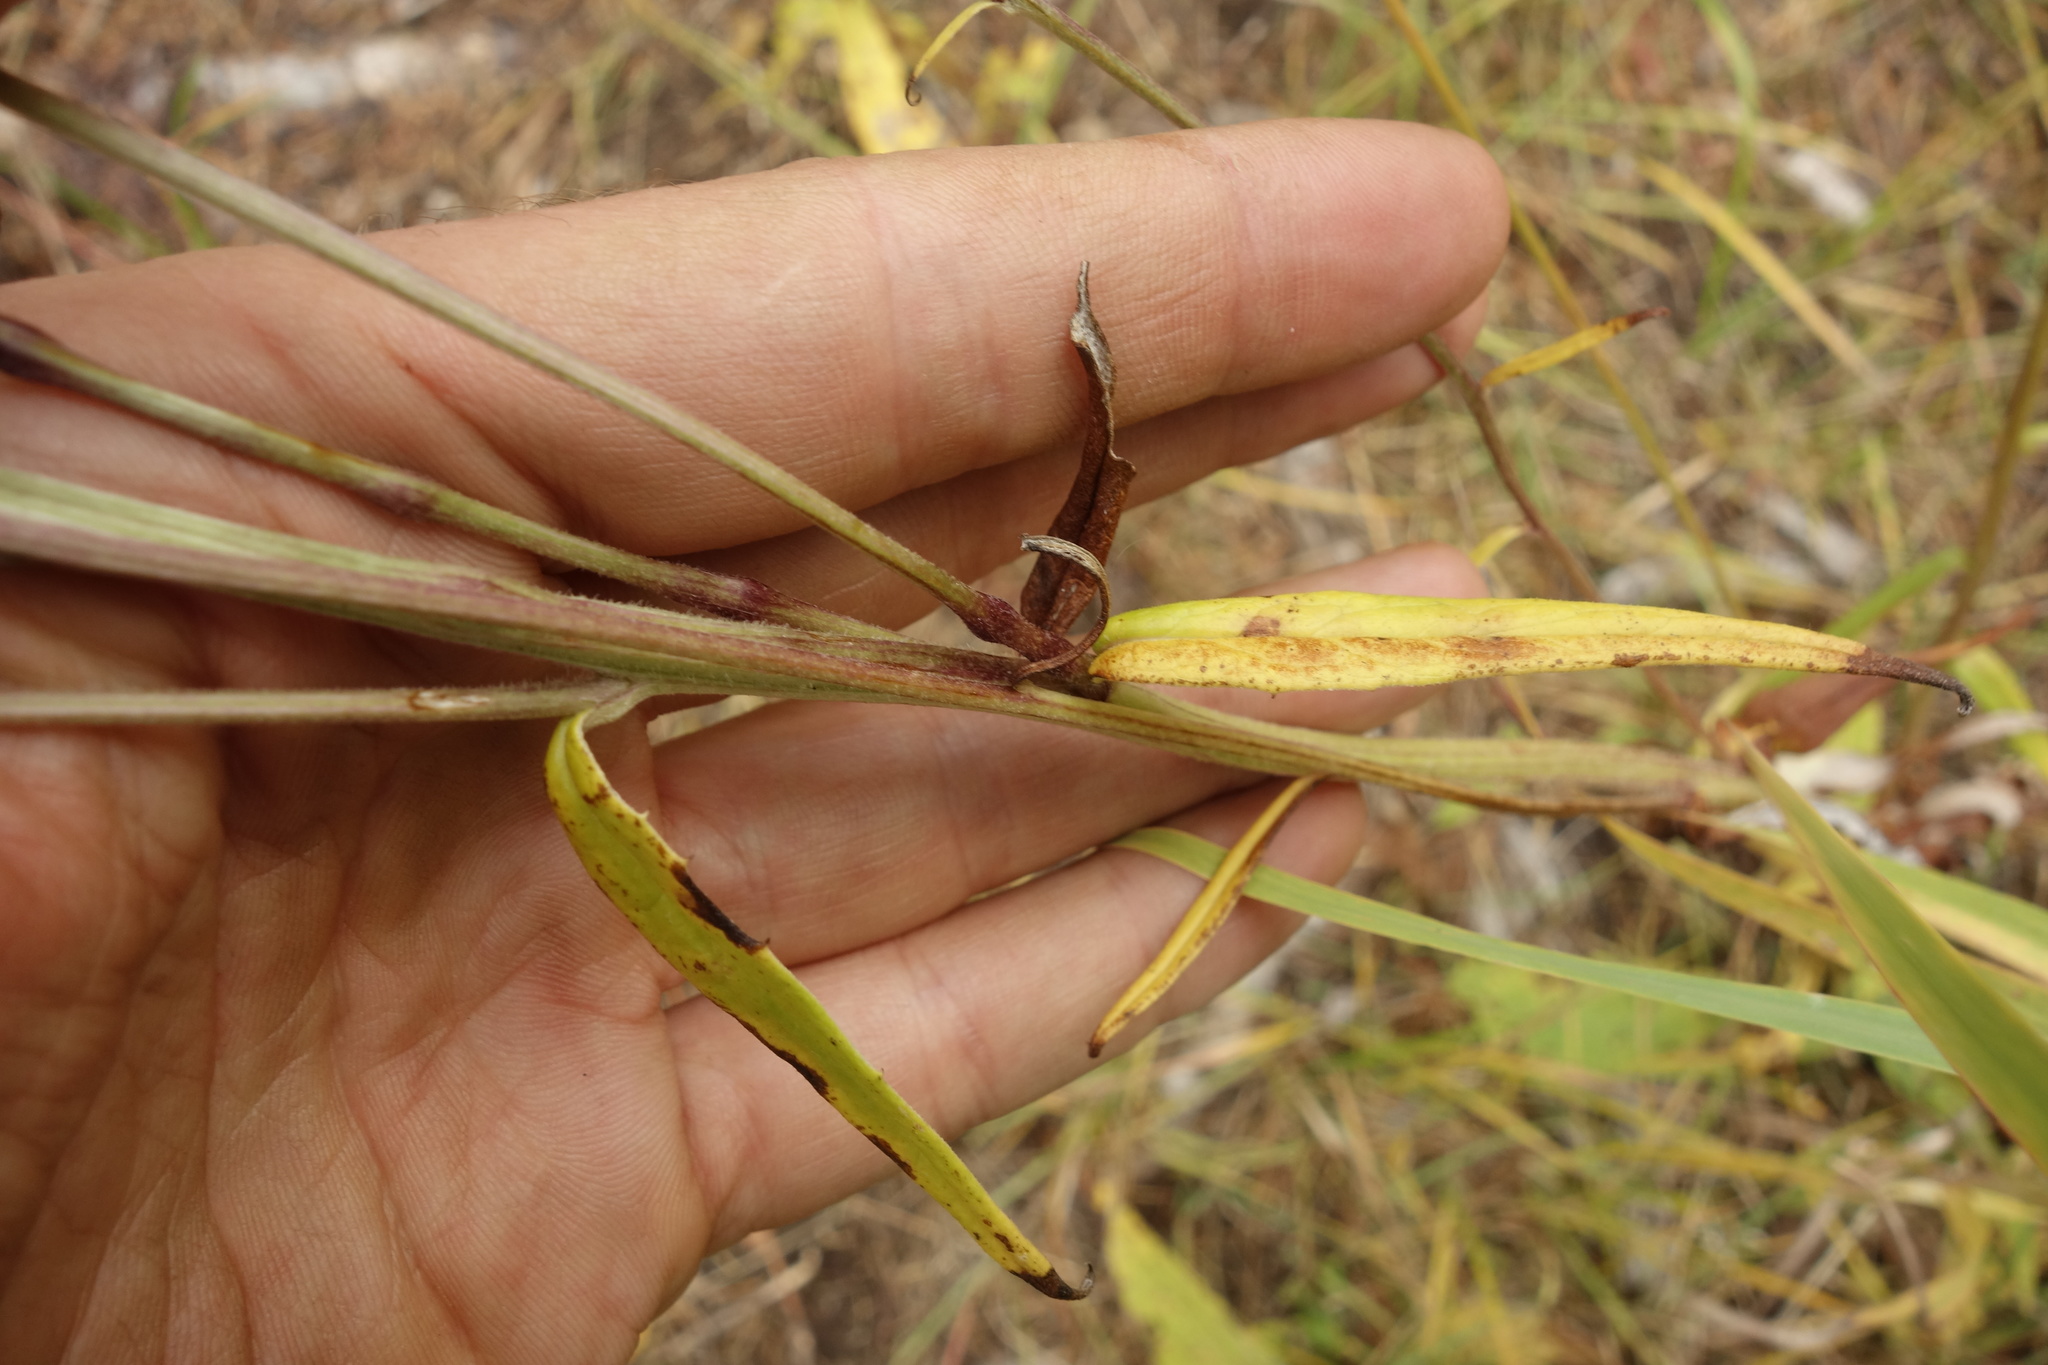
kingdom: Plantae
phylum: Tracheophyta
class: Liliopsida
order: Poales
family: Poaceae
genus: Beckmannia
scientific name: Beckmannia syzigachne
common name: American slough-grass
